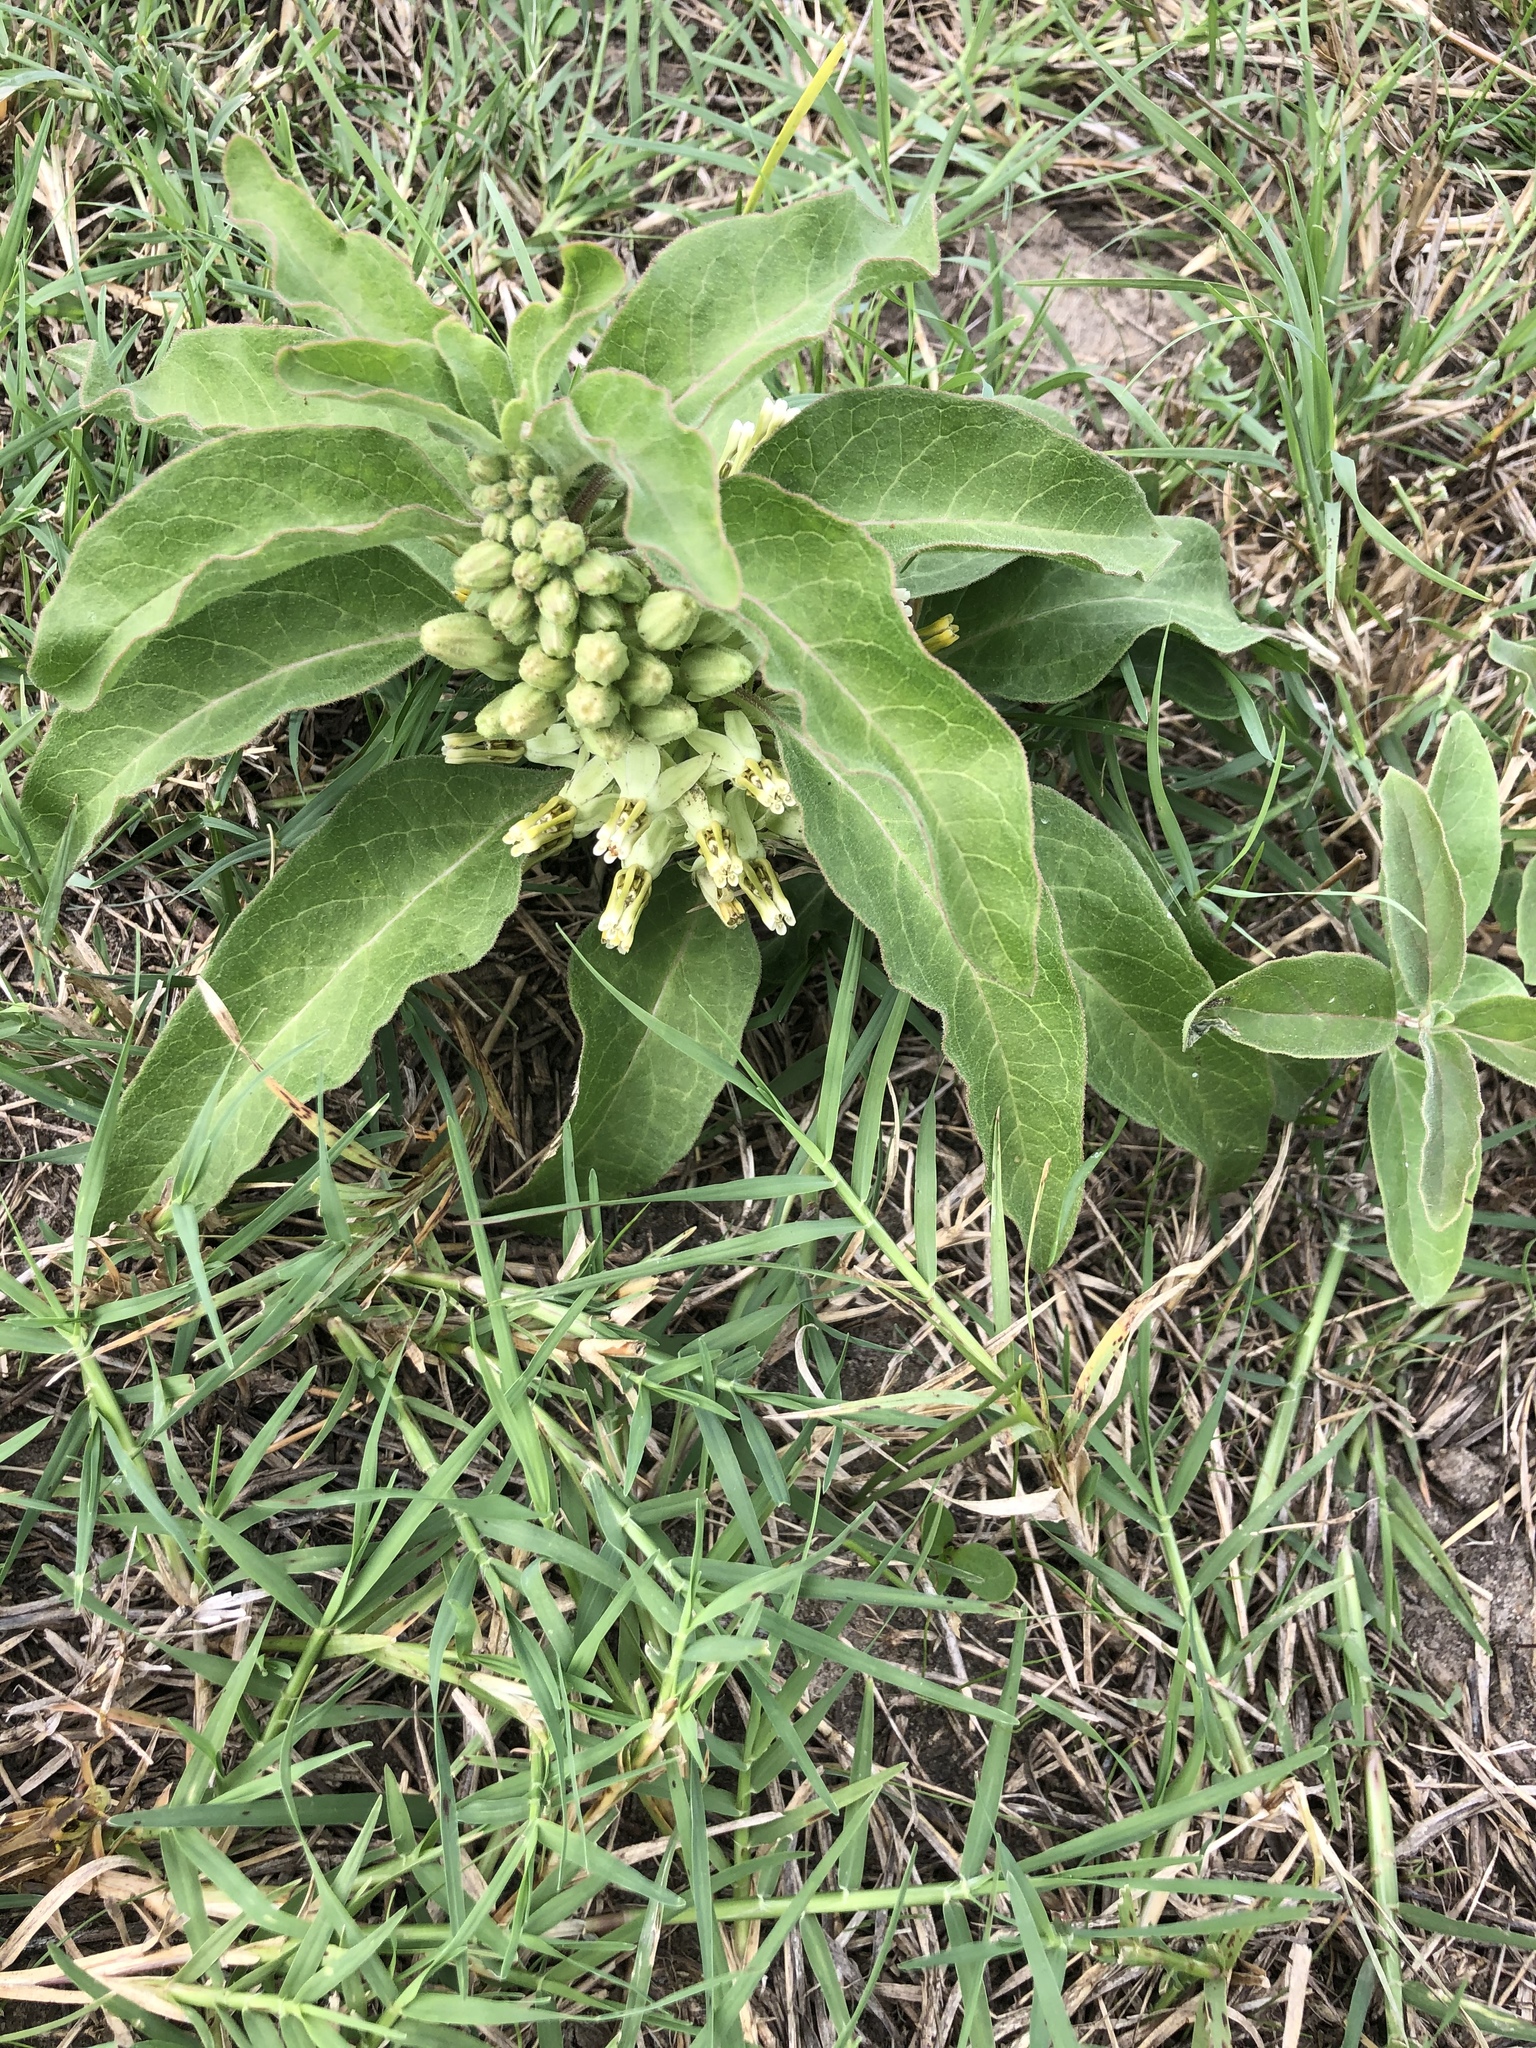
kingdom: Plantae
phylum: Tracheophyta
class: Magnoliopsida
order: Gentianales
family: Apocynaceae
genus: Asclepias
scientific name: Asclepias oenotheroides
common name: Zizotes milkweed
